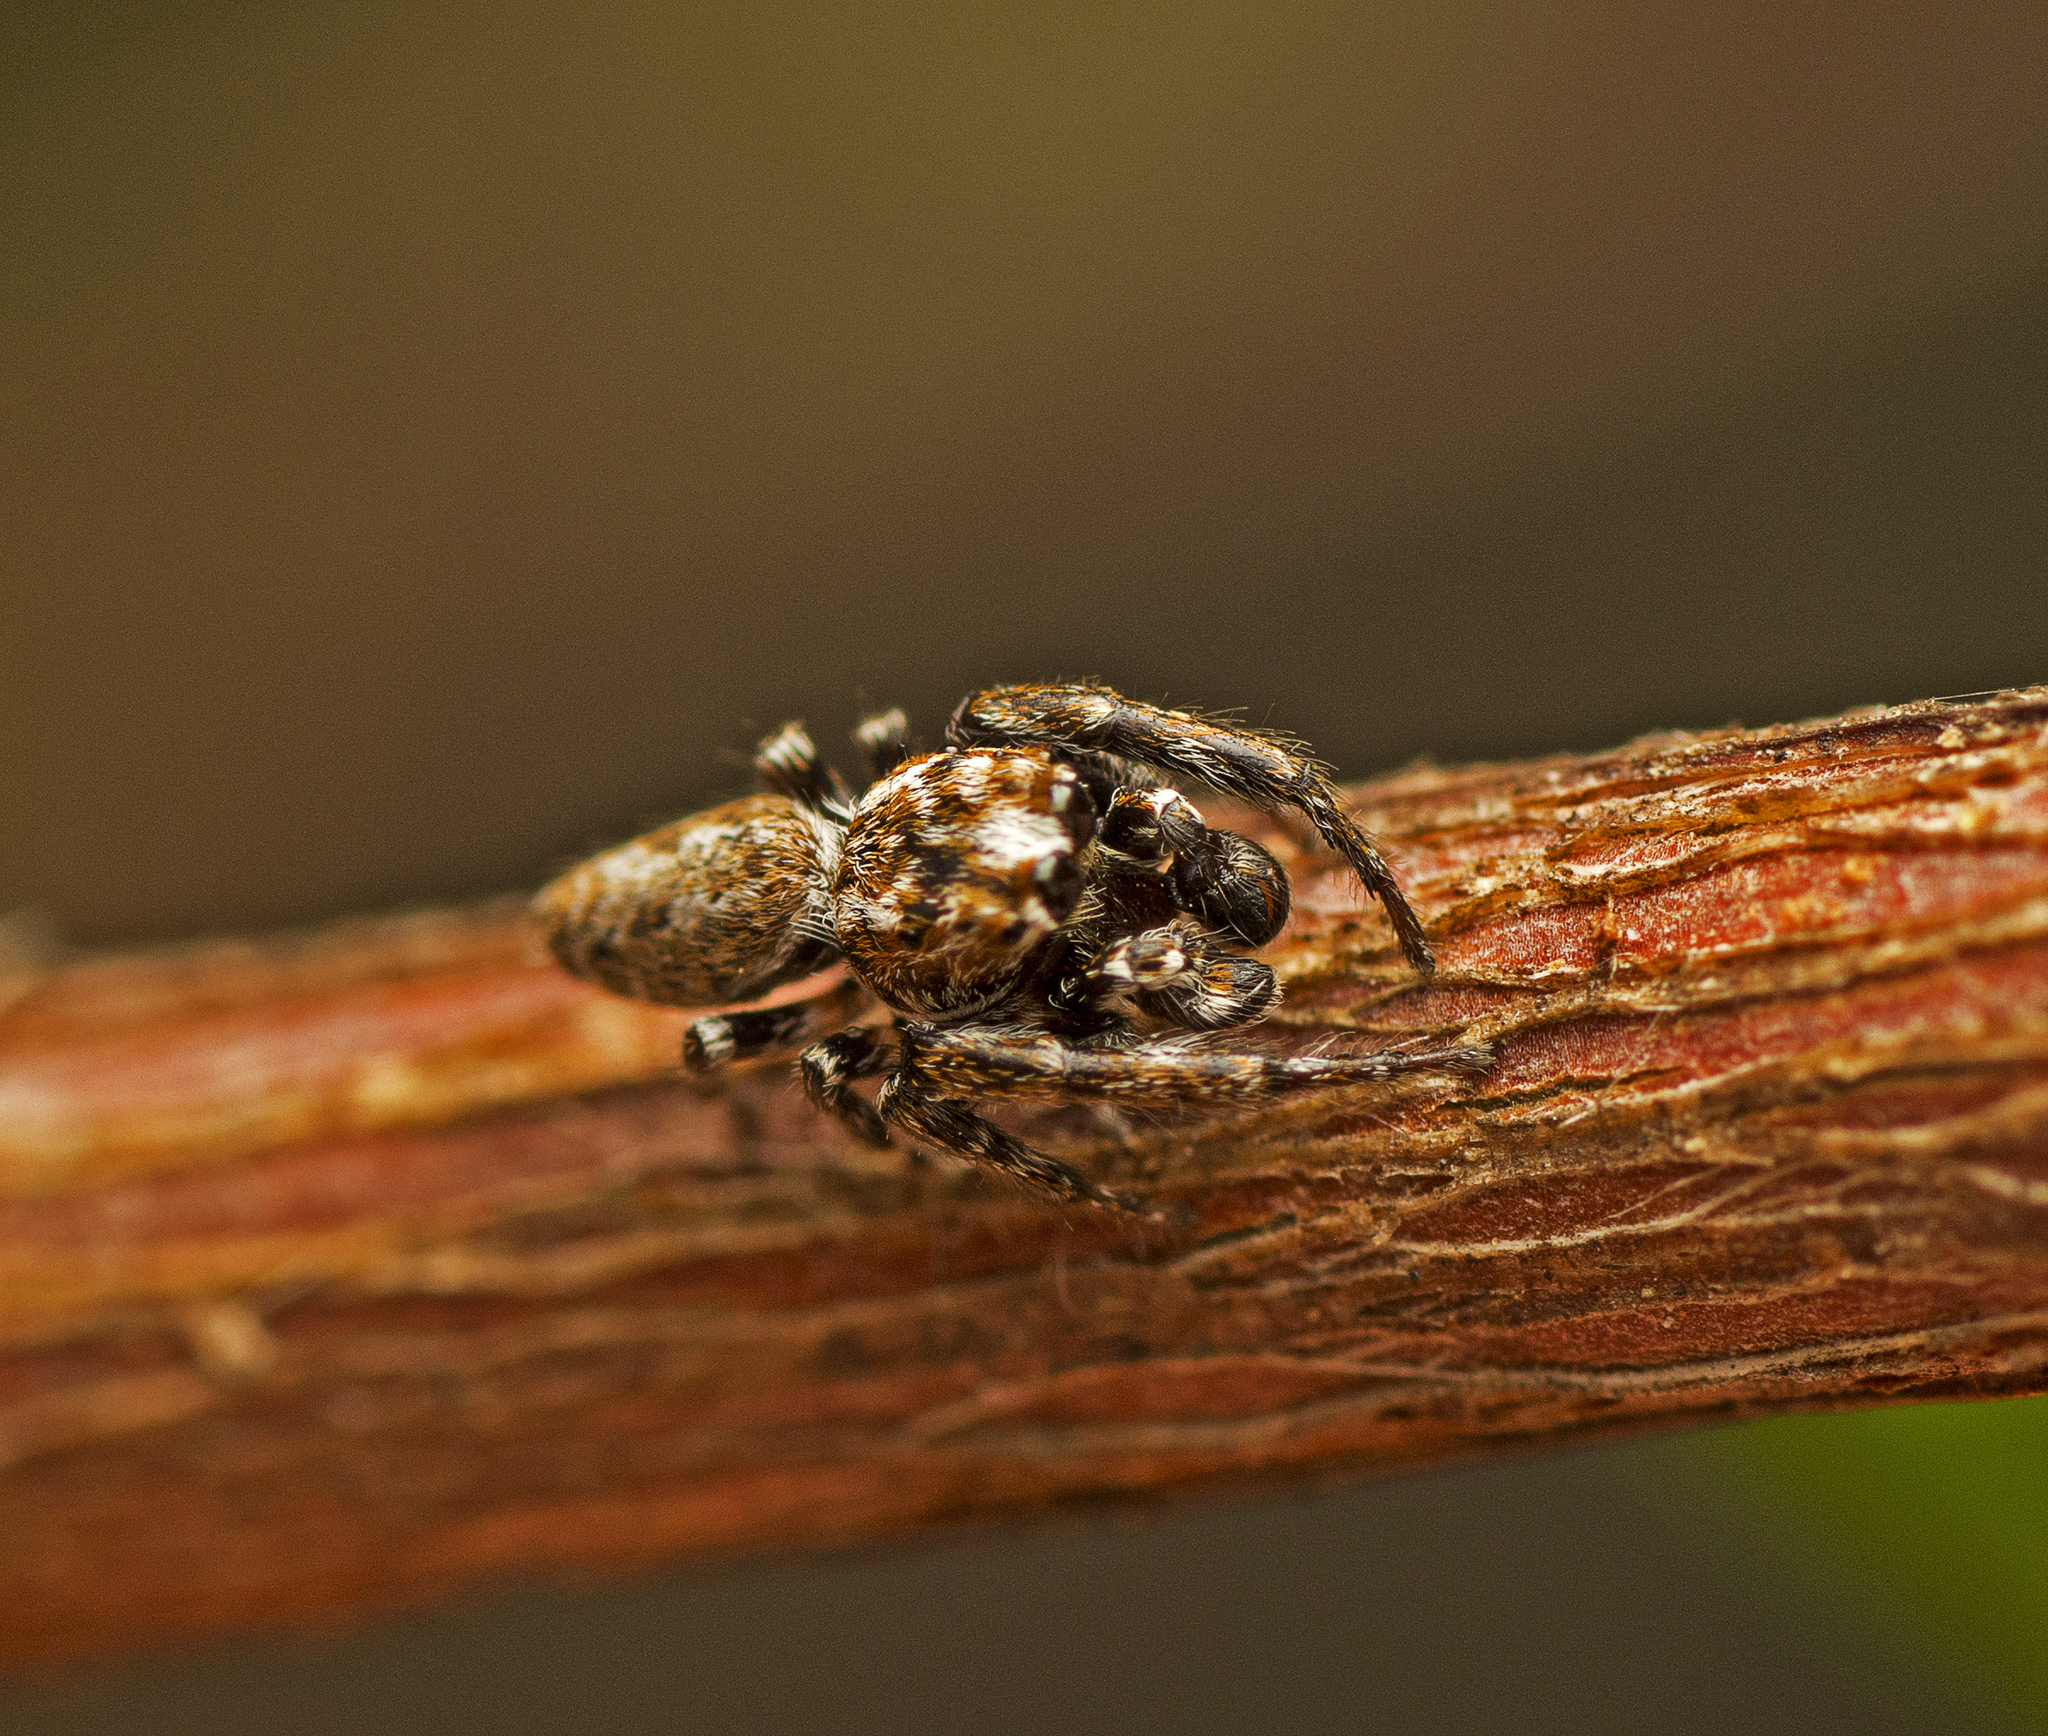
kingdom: Animalia
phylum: Arthropoda
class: Arachnida
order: Araneae
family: Salticidae
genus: Paraphilaeus
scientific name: Paraphilaeus daemeli
